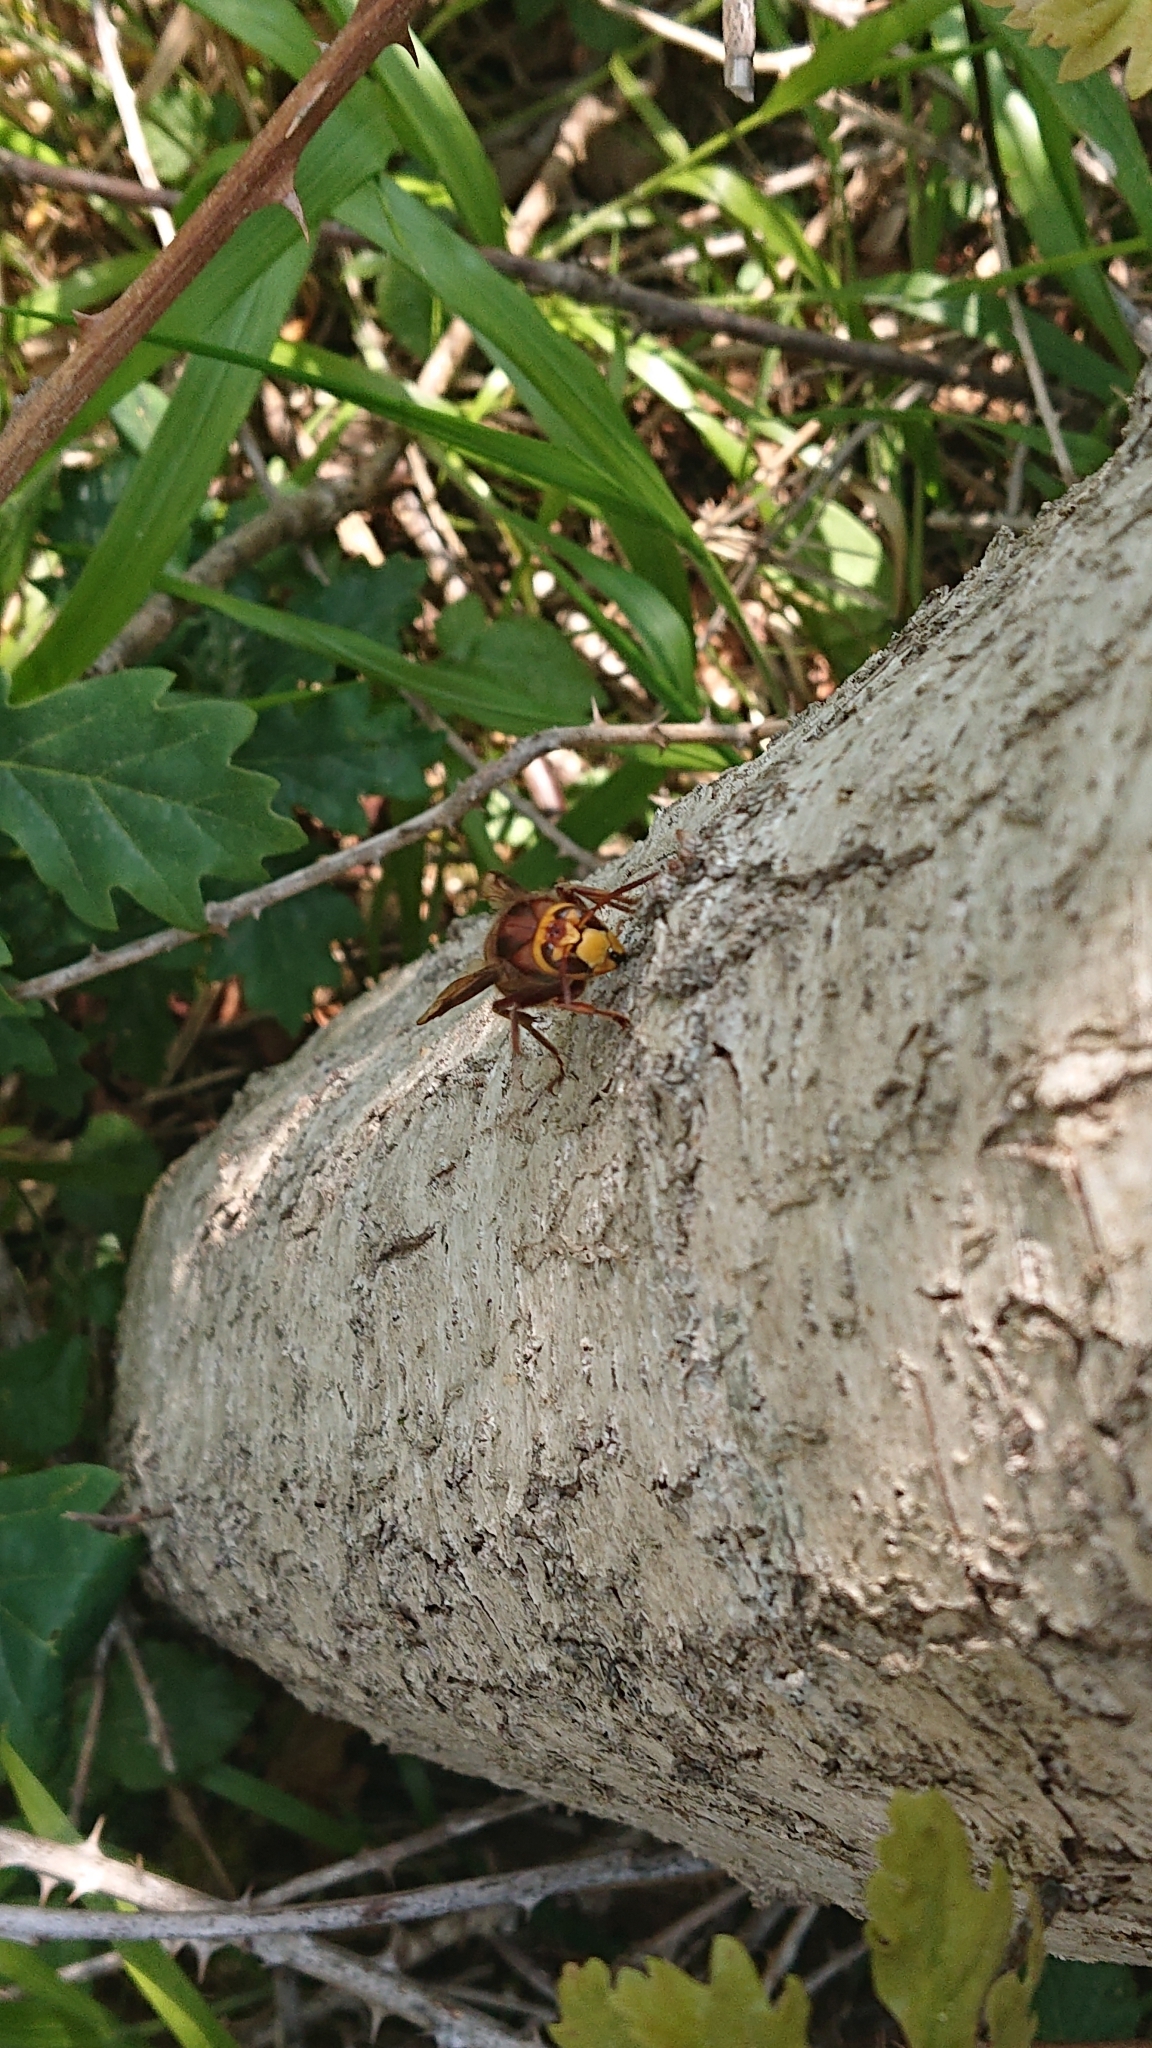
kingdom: Animalia
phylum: Arthropoda
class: Insecta
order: Hymenoptera
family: Vespidae
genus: Vespa
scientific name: Vespa crabro
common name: Hornet
